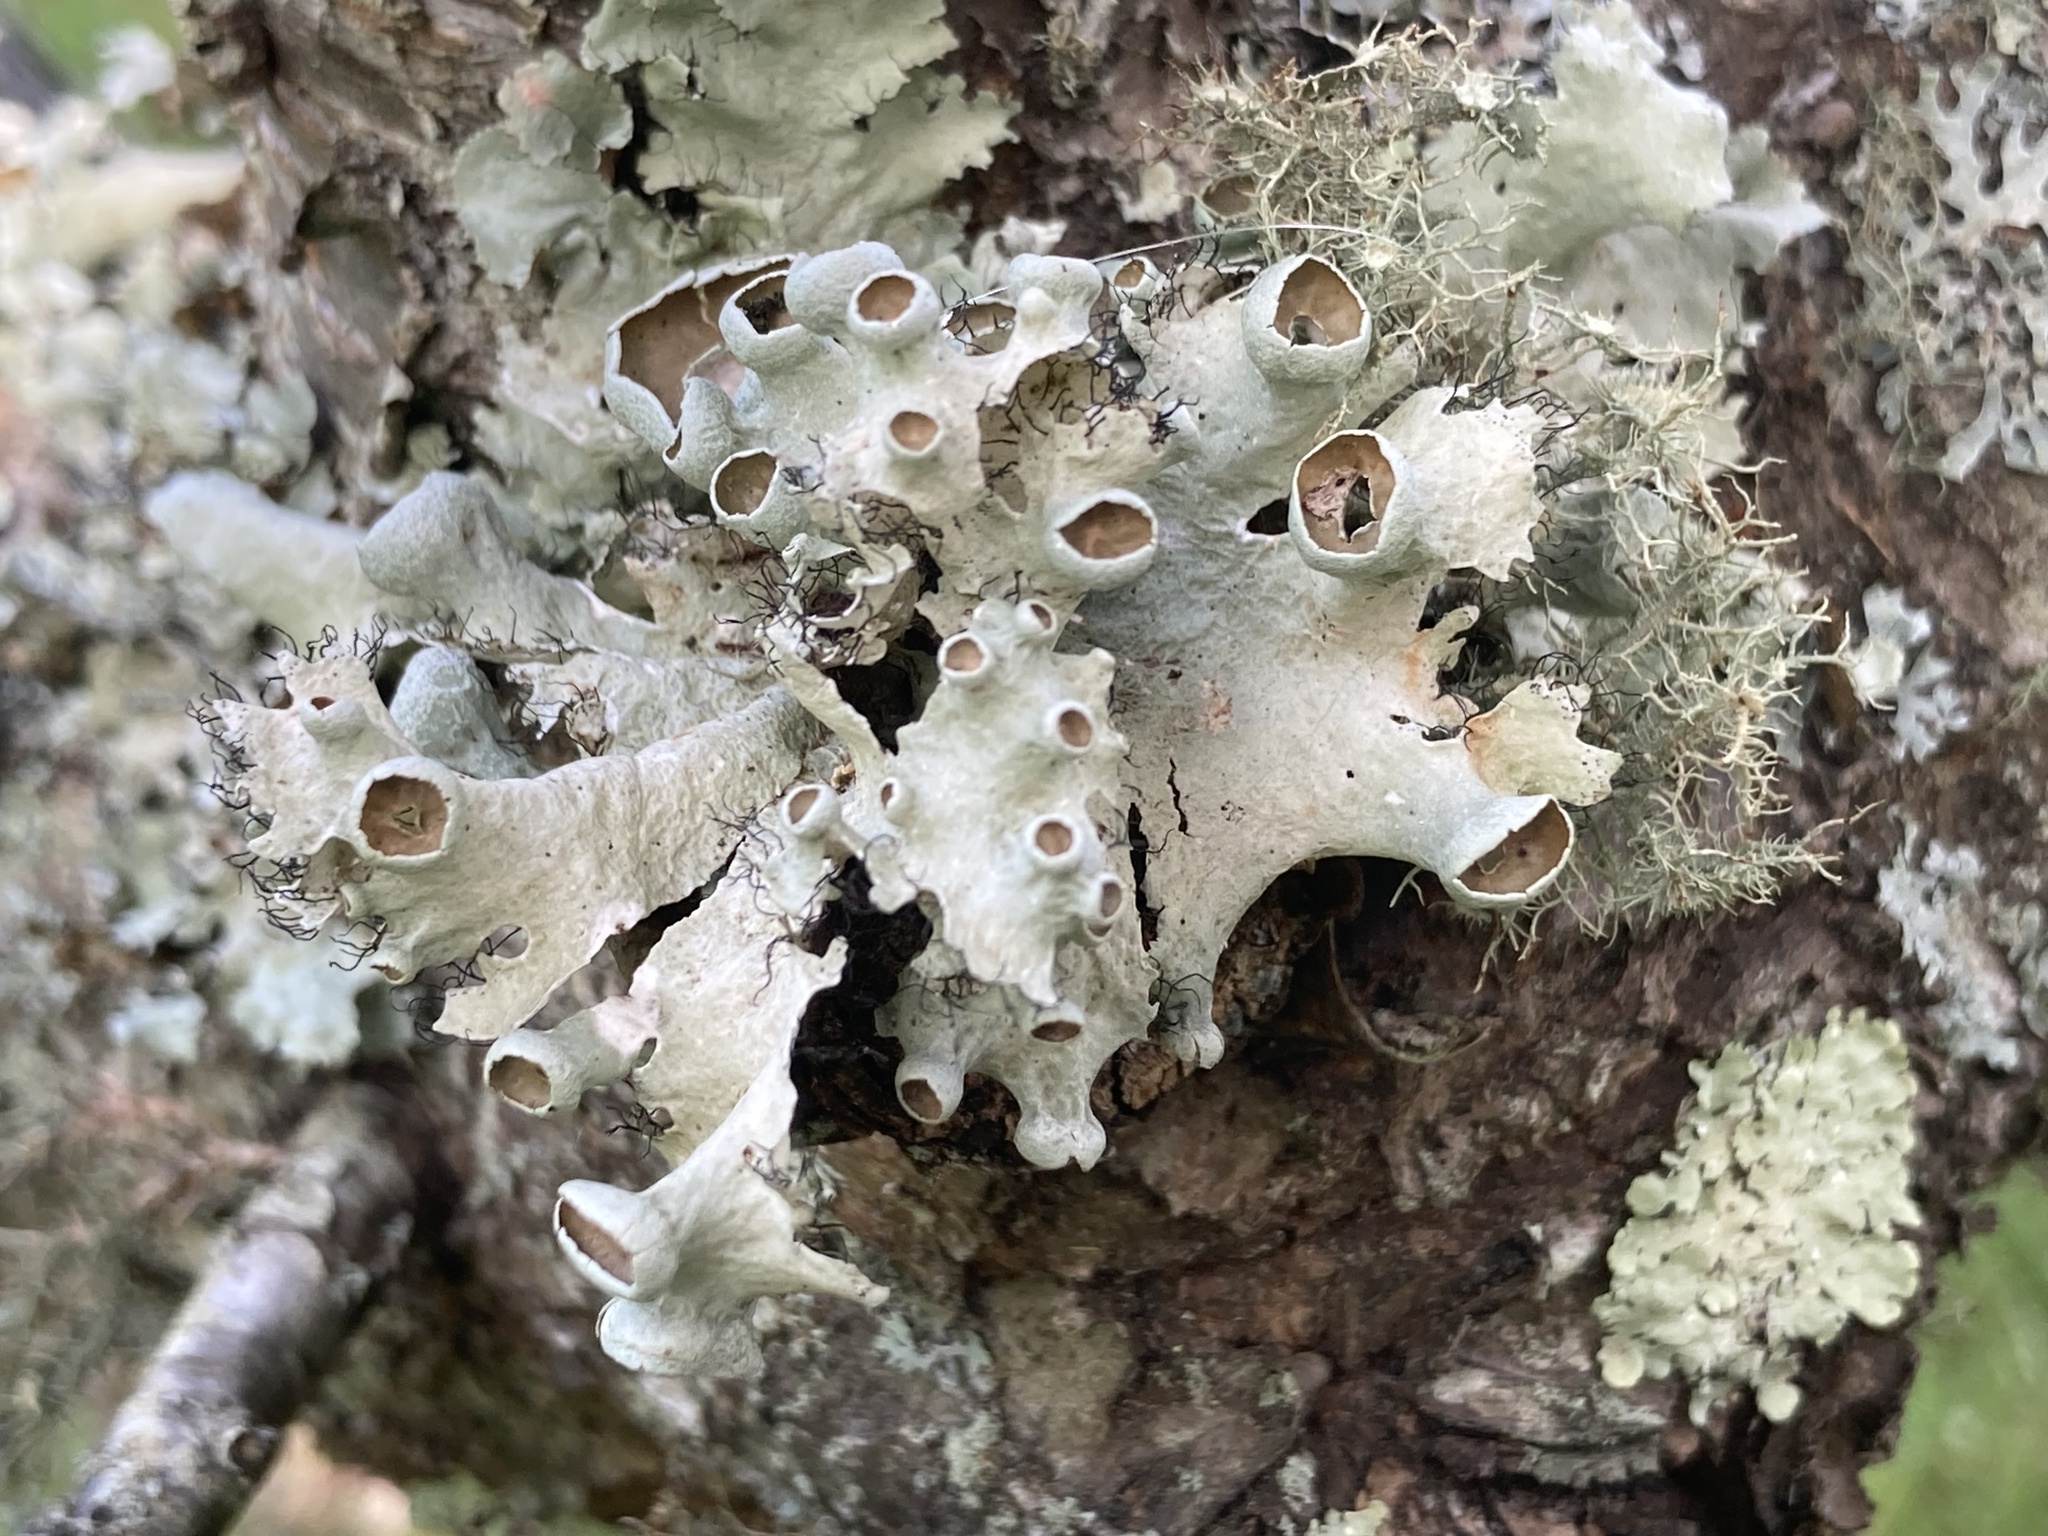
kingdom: Fungi
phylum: Ascomycota
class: Lecanoromycetes
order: Lecanorales
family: Parmeliaceae
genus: Parmotrema
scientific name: Parmotrema perforatum
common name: Perforated ruffle lichen
